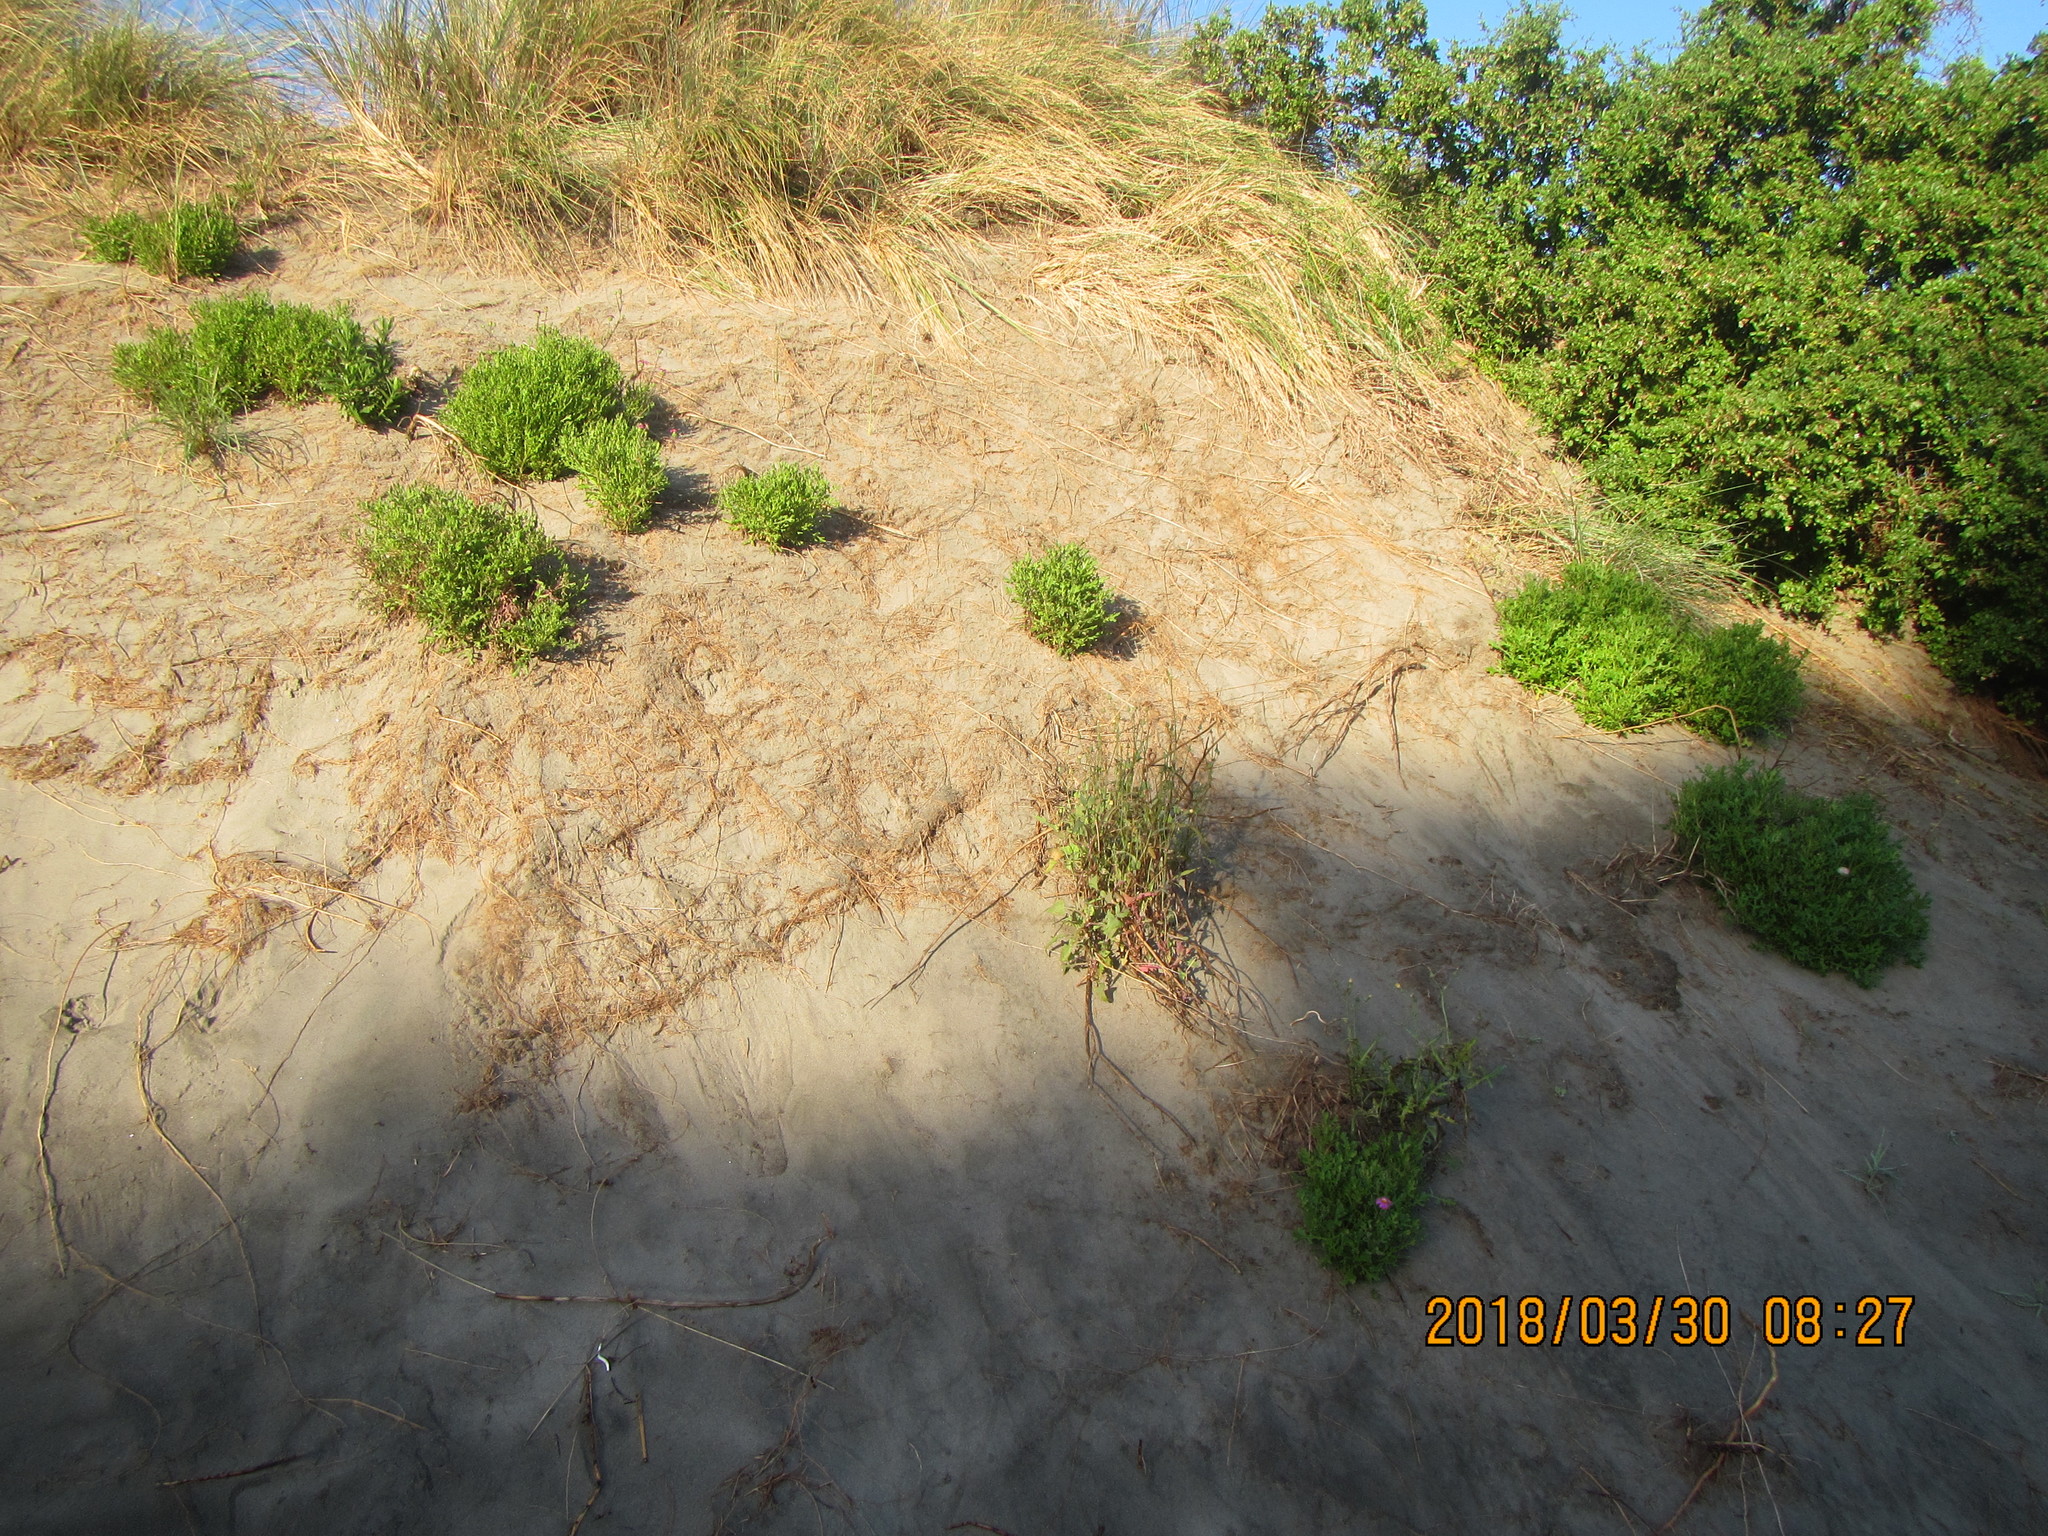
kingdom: Plantae
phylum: Tracheophyta
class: Magnoliopsida
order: Asterales
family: Asteraceae
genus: Senecio
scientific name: Senecio elegans
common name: Purple groundsel
